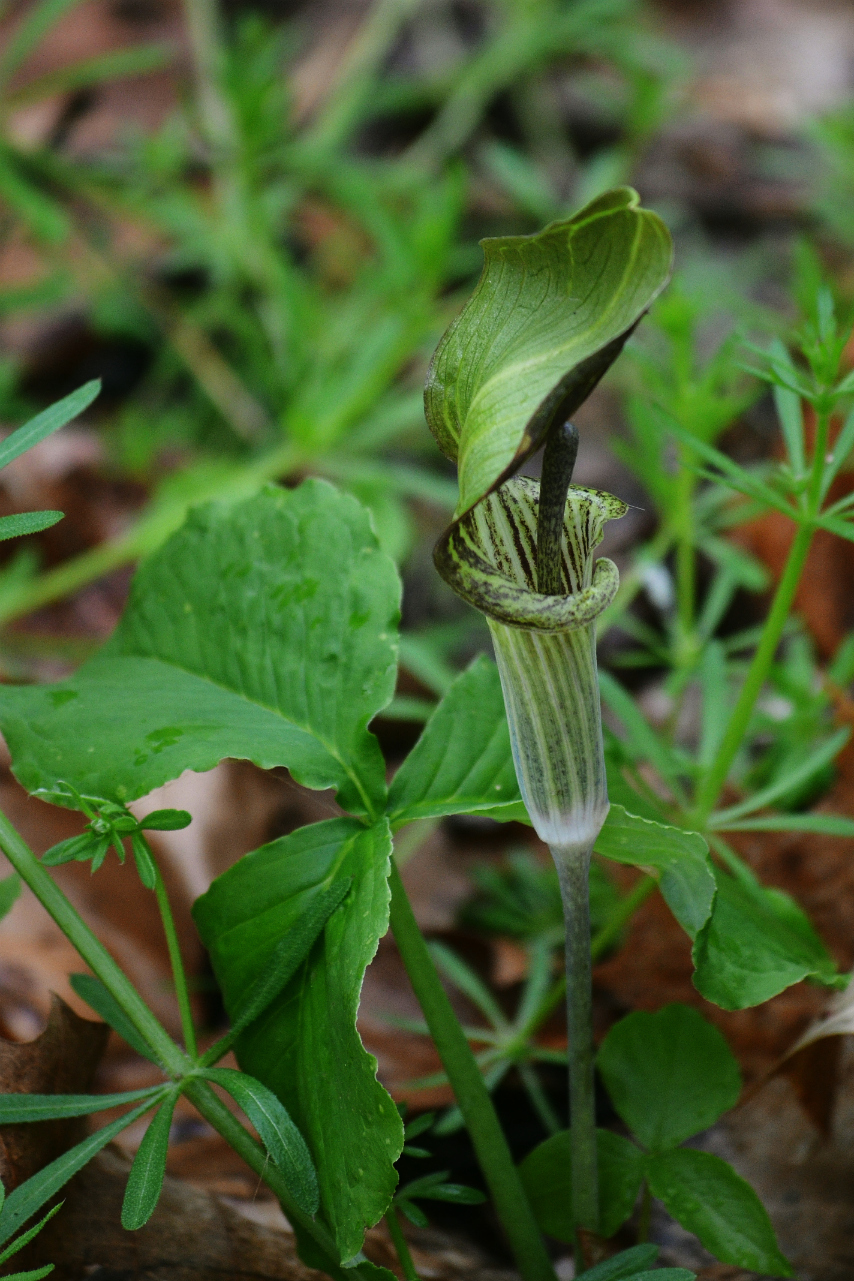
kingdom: Plantae
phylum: Tracheophyta
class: Liliopsida
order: Alismatales
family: Araceae
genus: Arisaema
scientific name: Arisaema triphyllum
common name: Jack-in-the-pulpit
